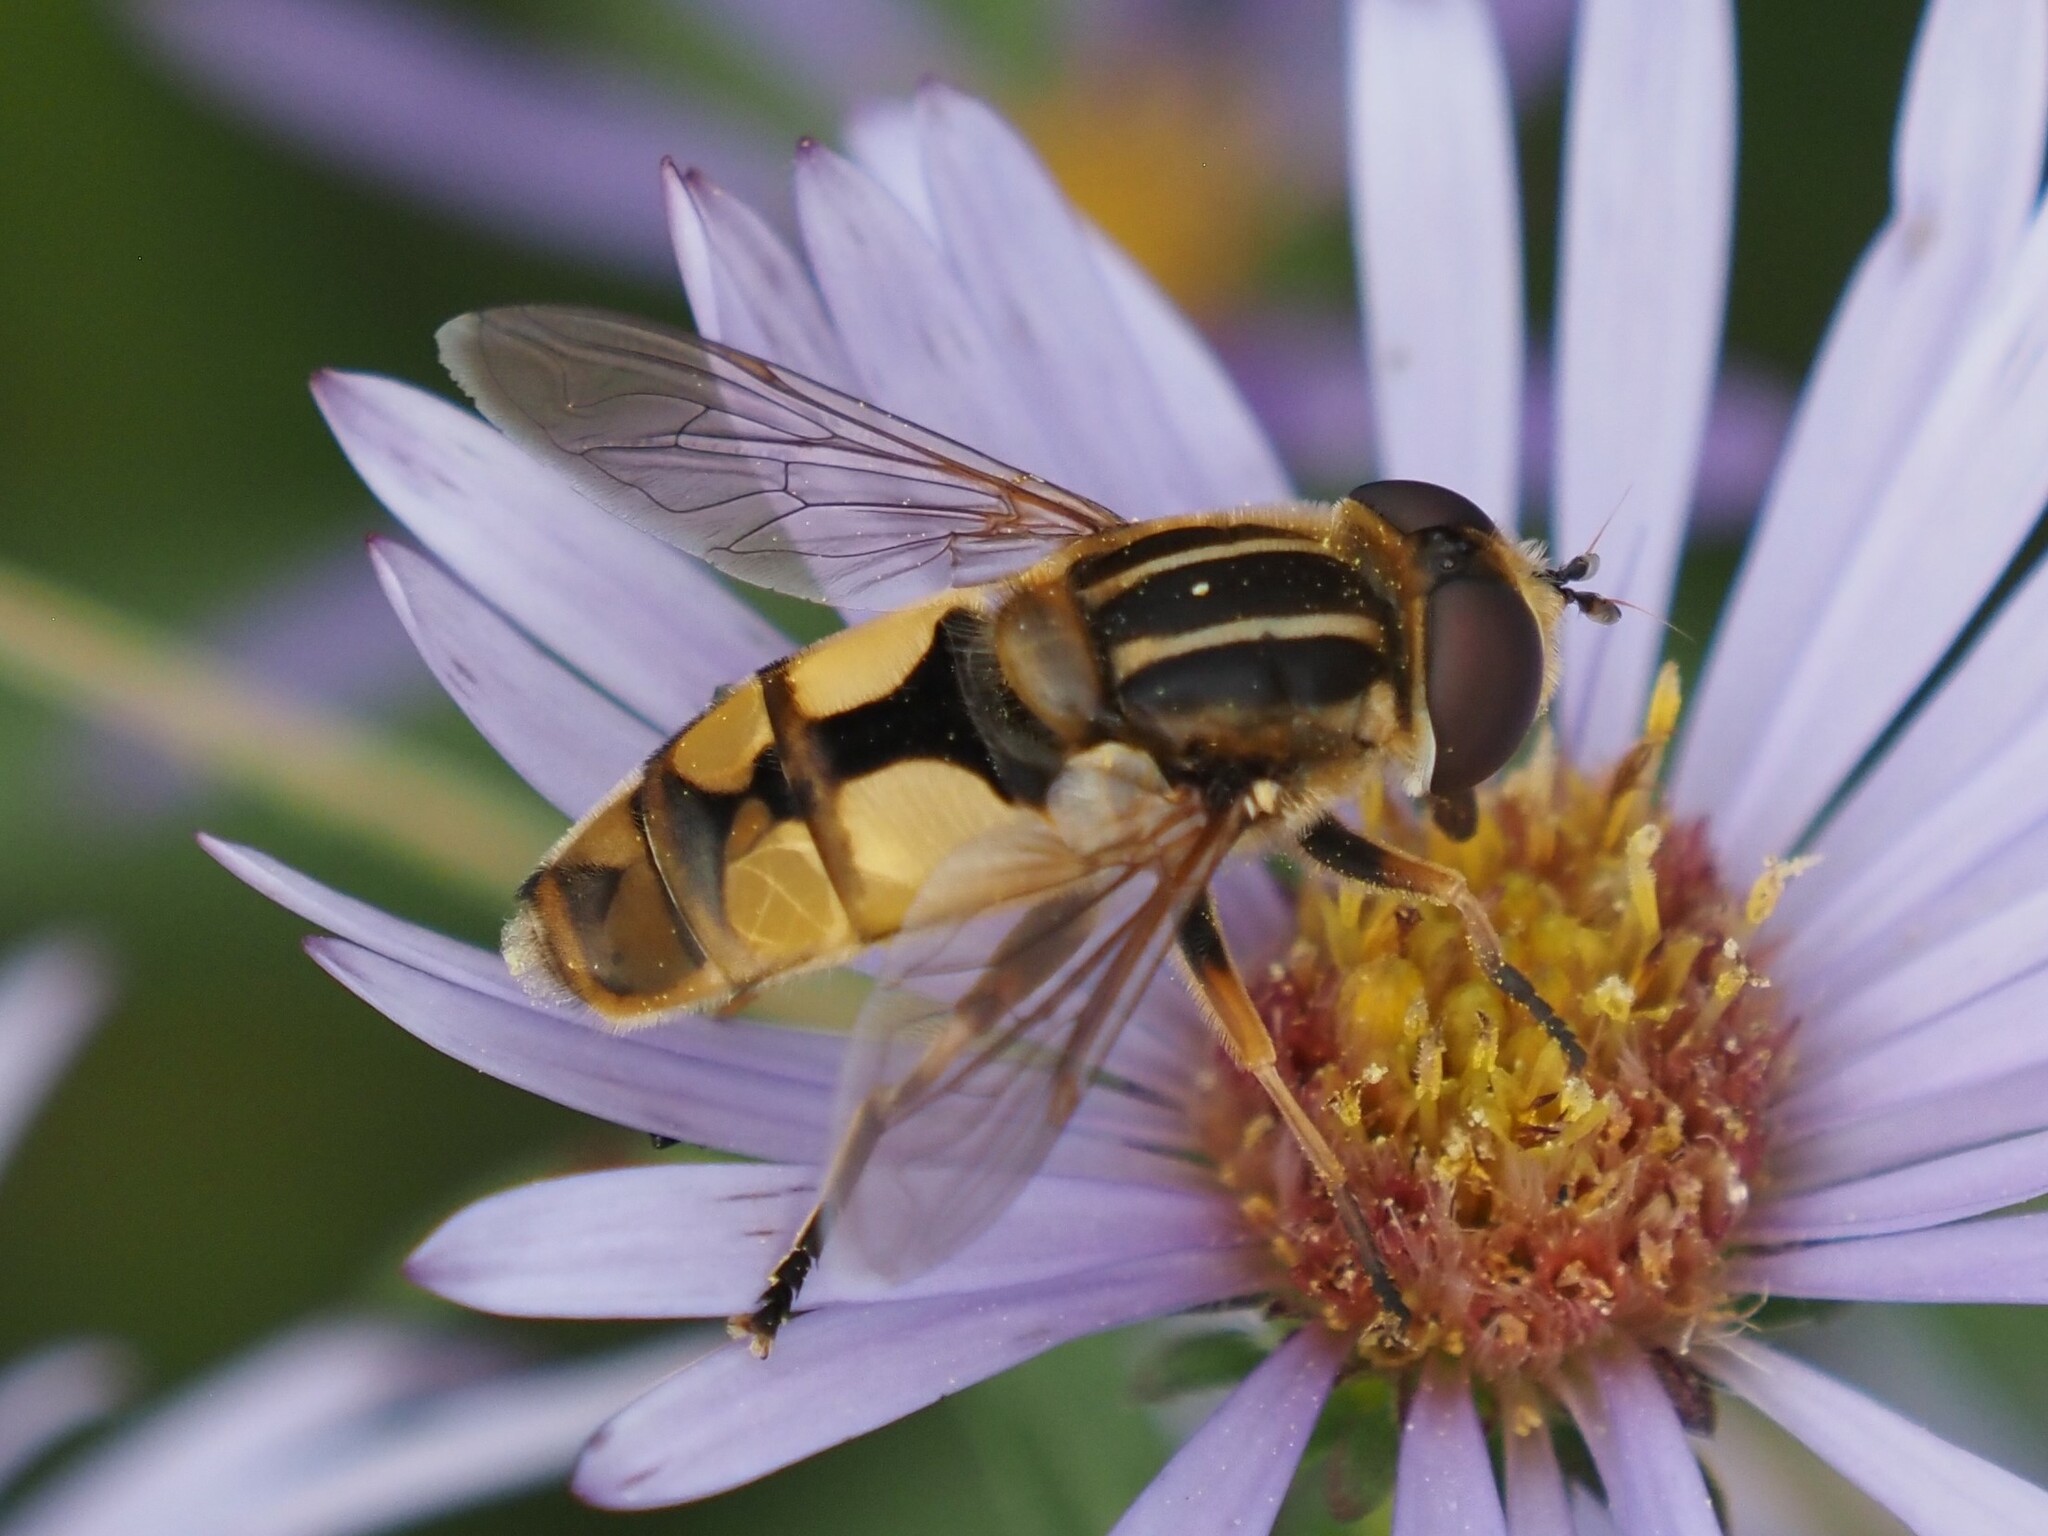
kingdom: Animalia
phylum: Arthropoda
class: Insecta
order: Diptera
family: Syrphidae
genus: Helophilus
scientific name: Helophilus hybridus
